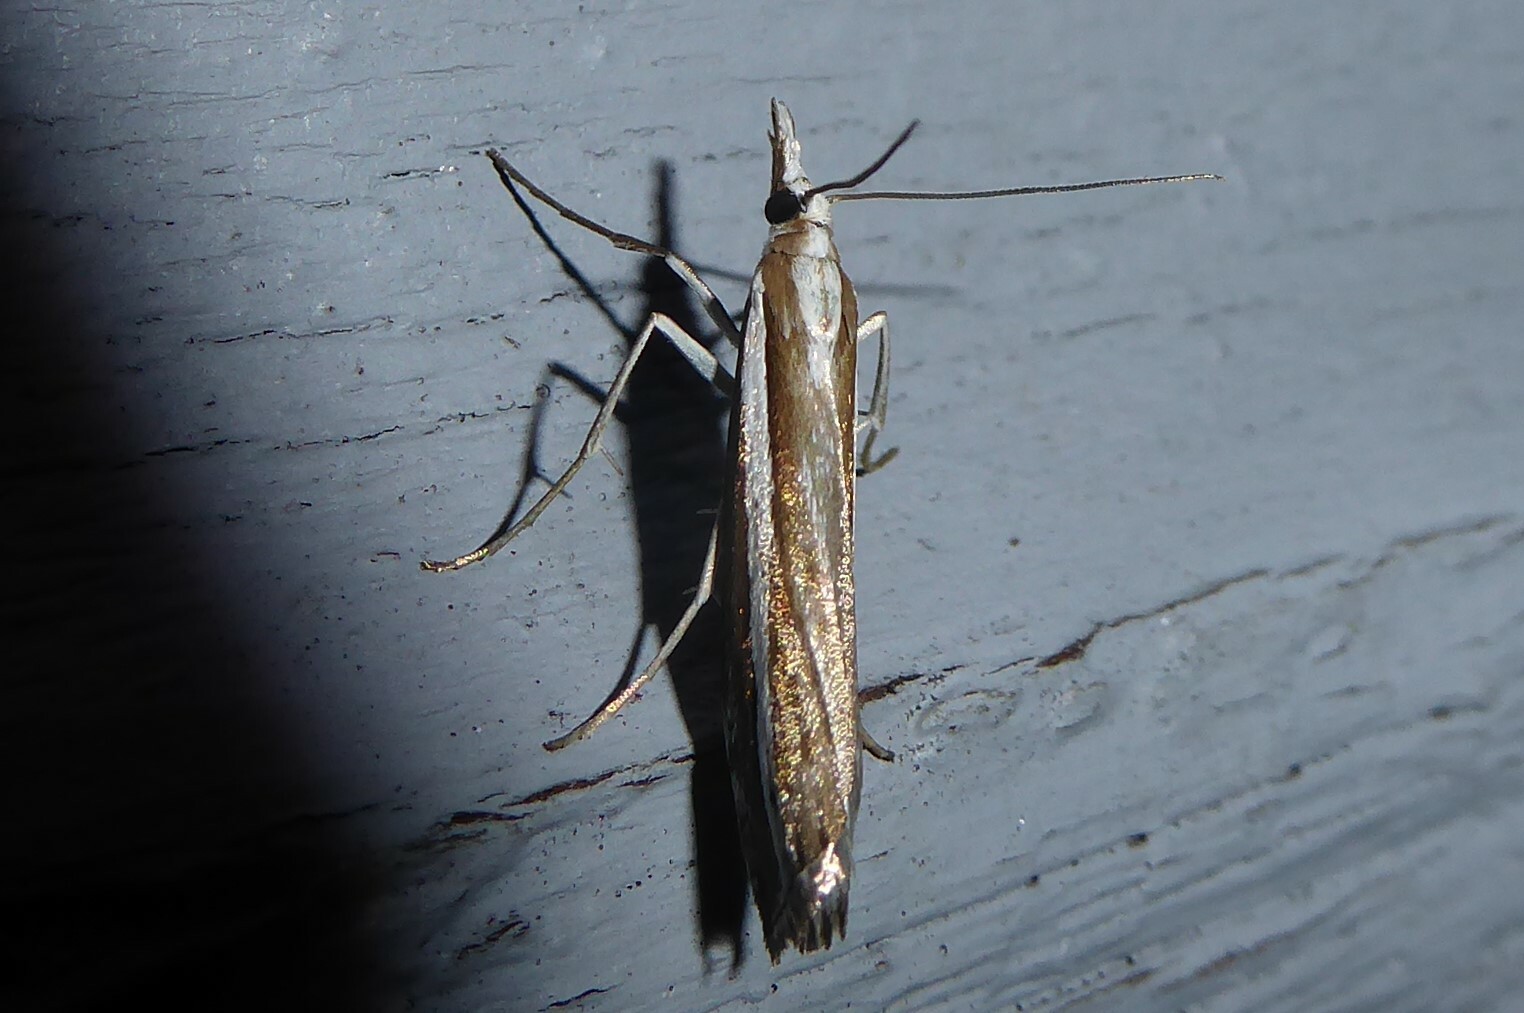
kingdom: Animalia
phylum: Arthropoda
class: Insecta
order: Lepidoptera
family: Crambidae
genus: Orocrambus
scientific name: Orocrambus vittellus
